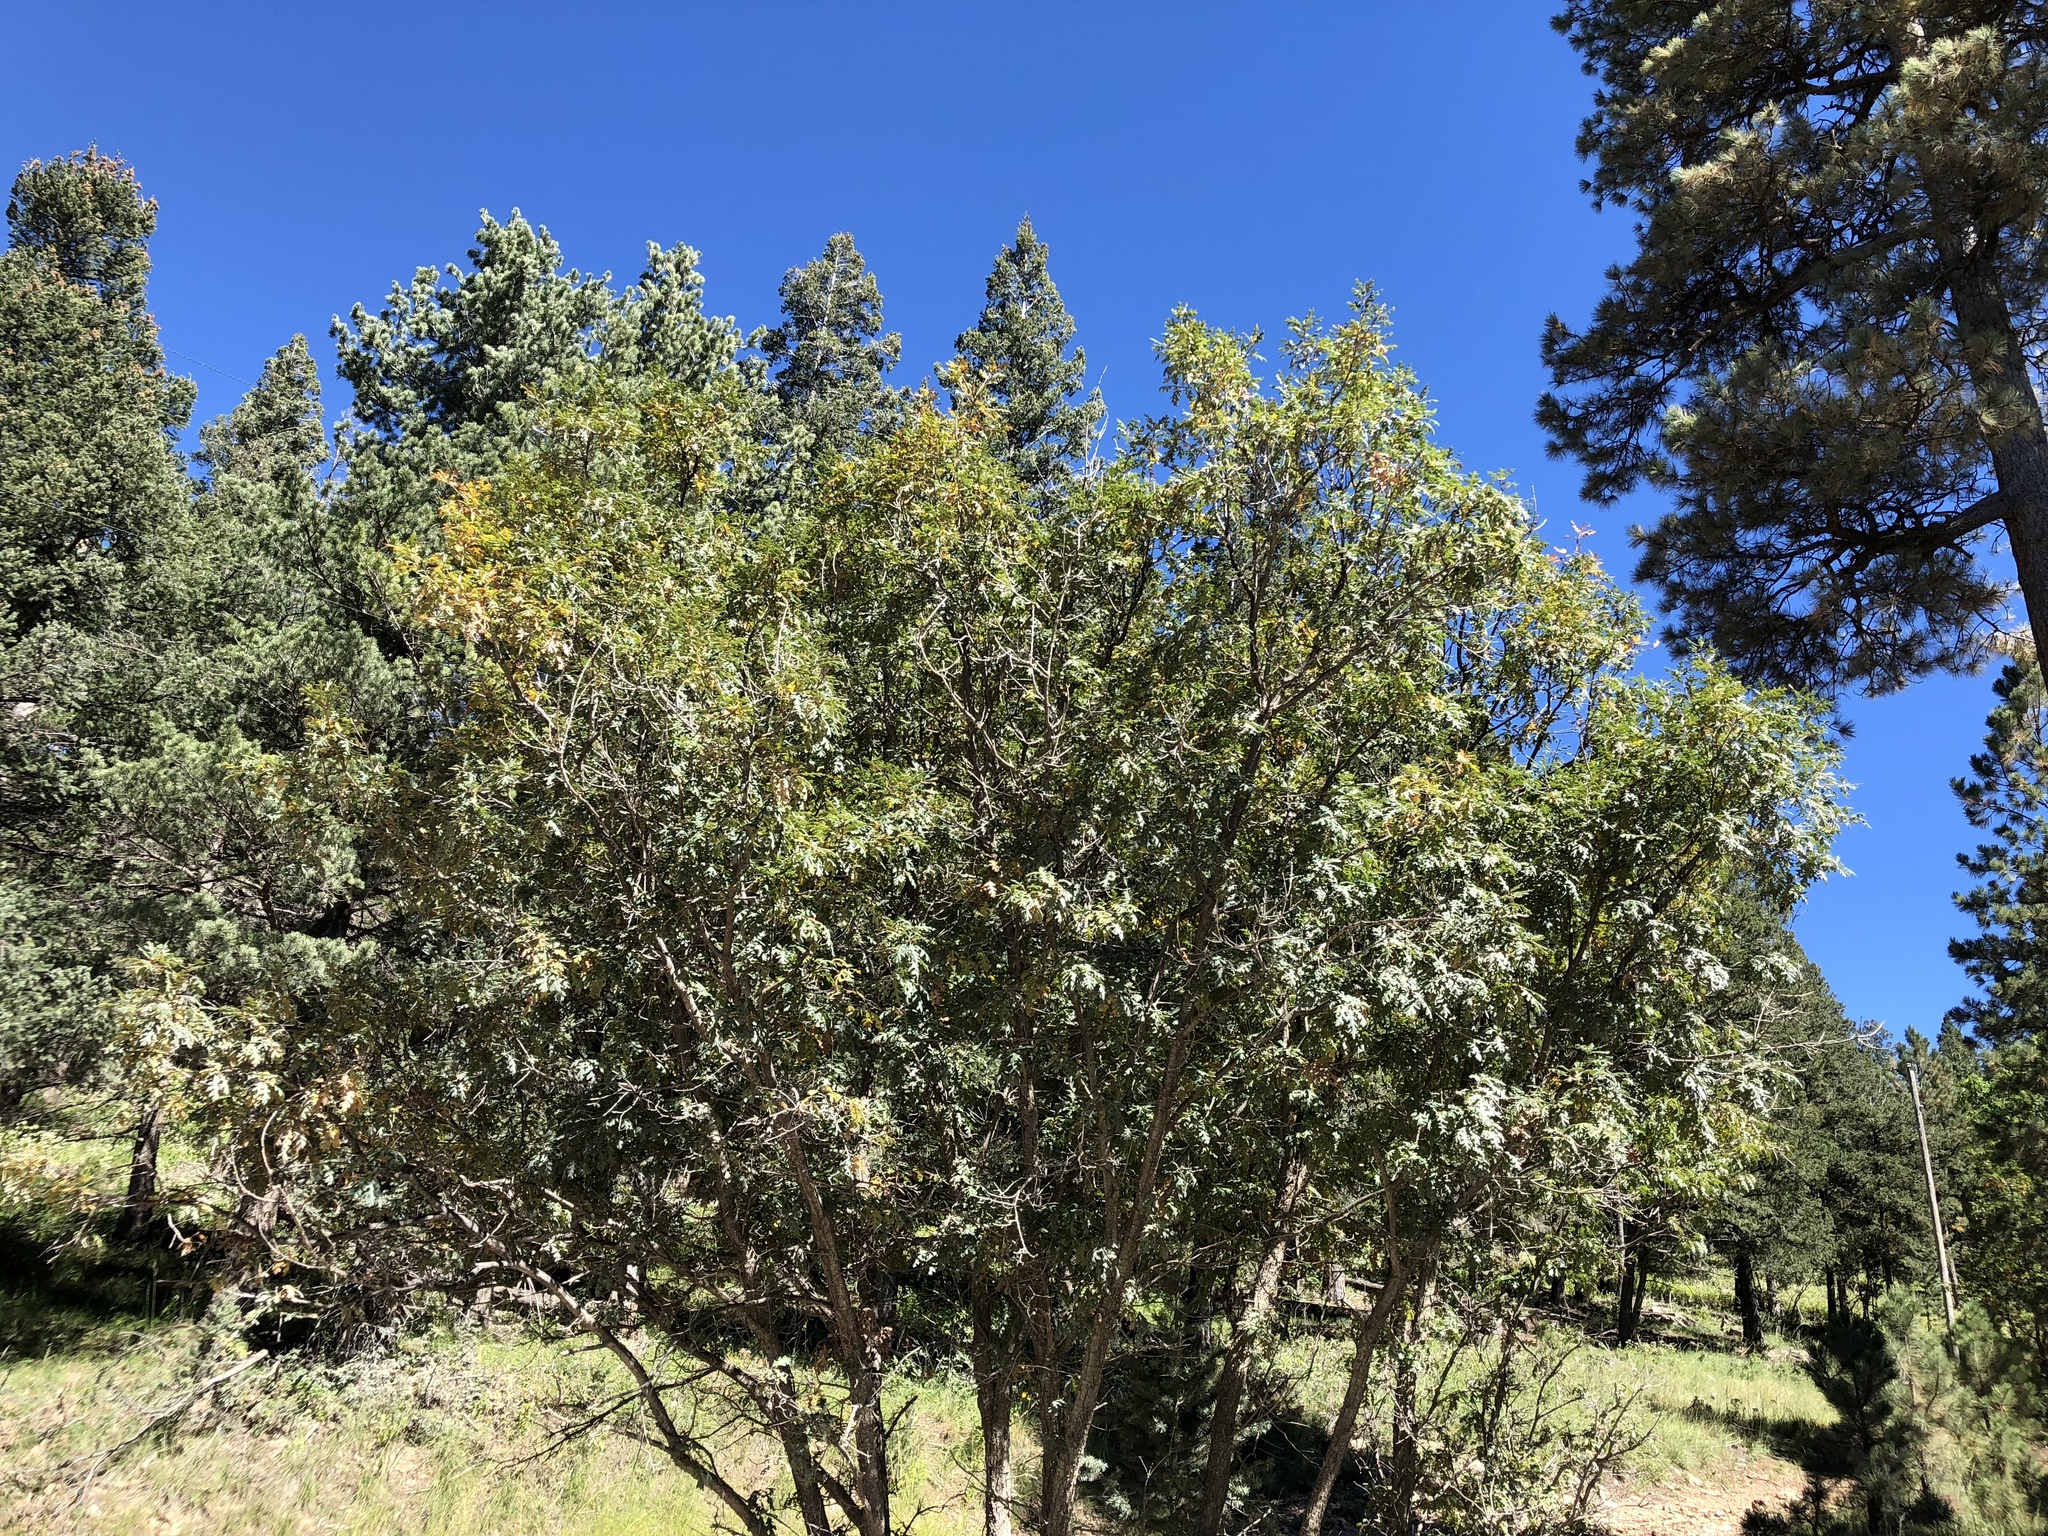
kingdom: Plantae
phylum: Tracheophyta
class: Magnoliopsida
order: Fagales
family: Fagaceae
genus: Quercus
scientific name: Quercus gambelii
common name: Gambel oak
